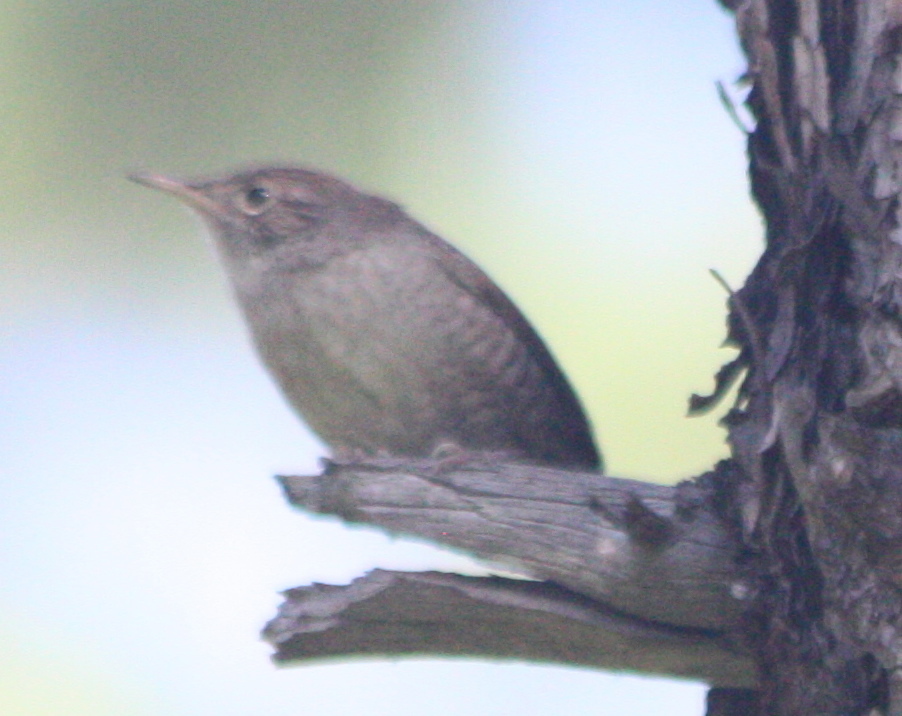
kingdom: Animalia
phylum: Chordata
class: Aves
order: Passeriformes
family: Troglodytidae
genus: Troglodytes
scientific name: Troglodytes aedon
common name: House wren
